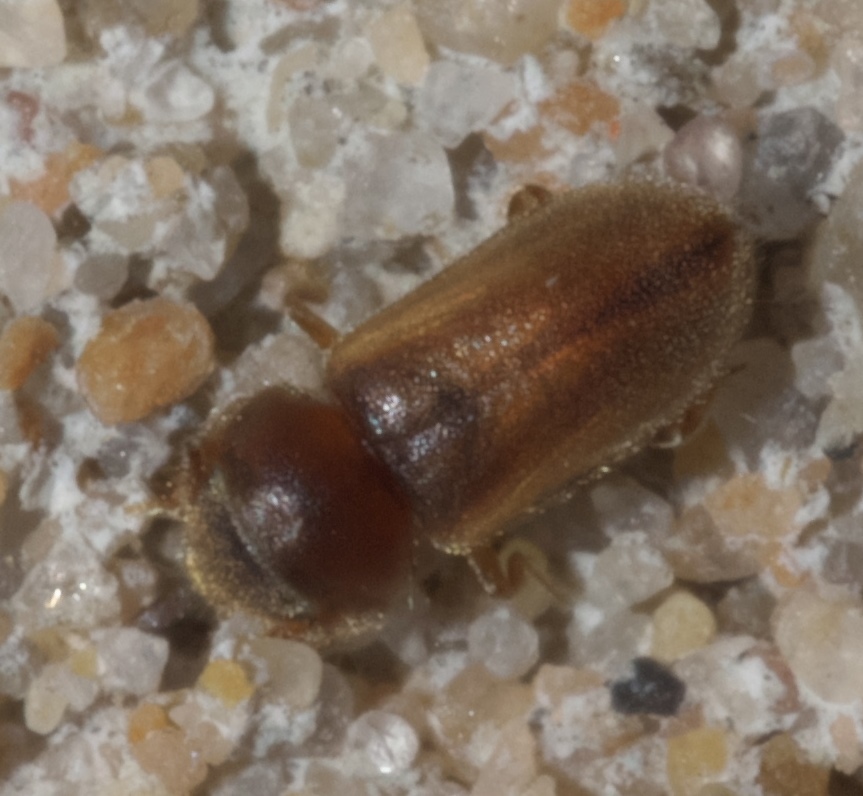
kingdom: Animalia
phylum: Arthropoda
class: Insecta
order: Coleoptera
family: Heteroceridae
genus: Tropicus
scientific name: Tropicus pusillus
